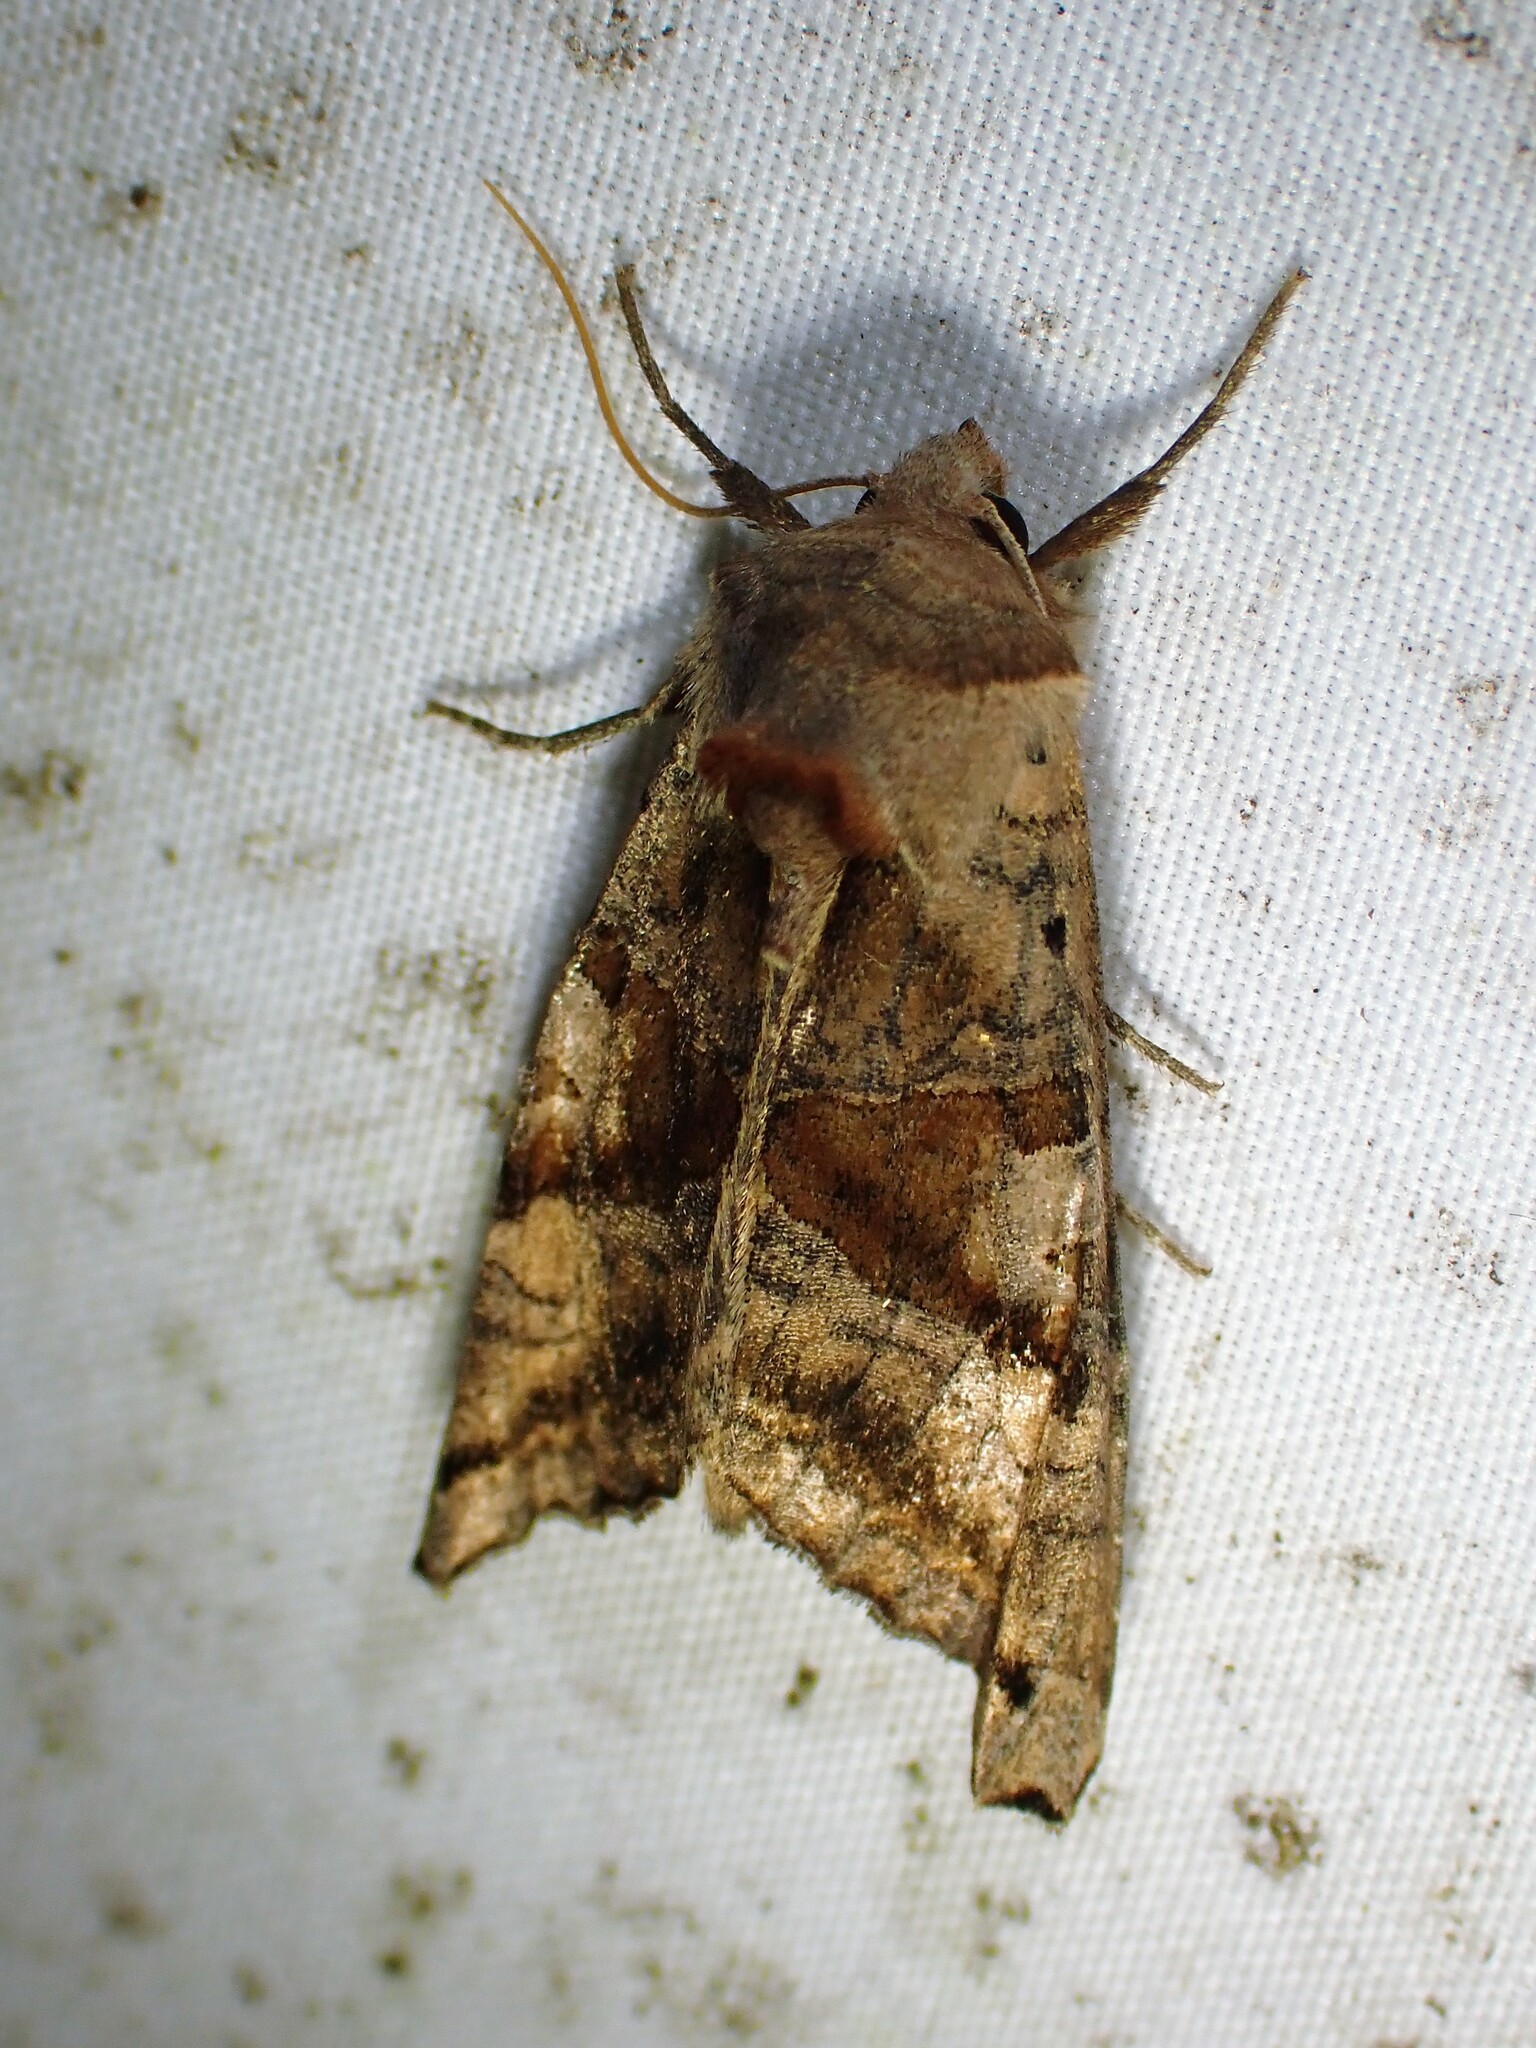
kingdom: Animalia
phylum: Arthropoda
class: Insecta
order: Lepidoptera
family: Noctuidae
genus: Phlogophora
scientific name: Phlogophora periculosa
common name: Brown angle shades
